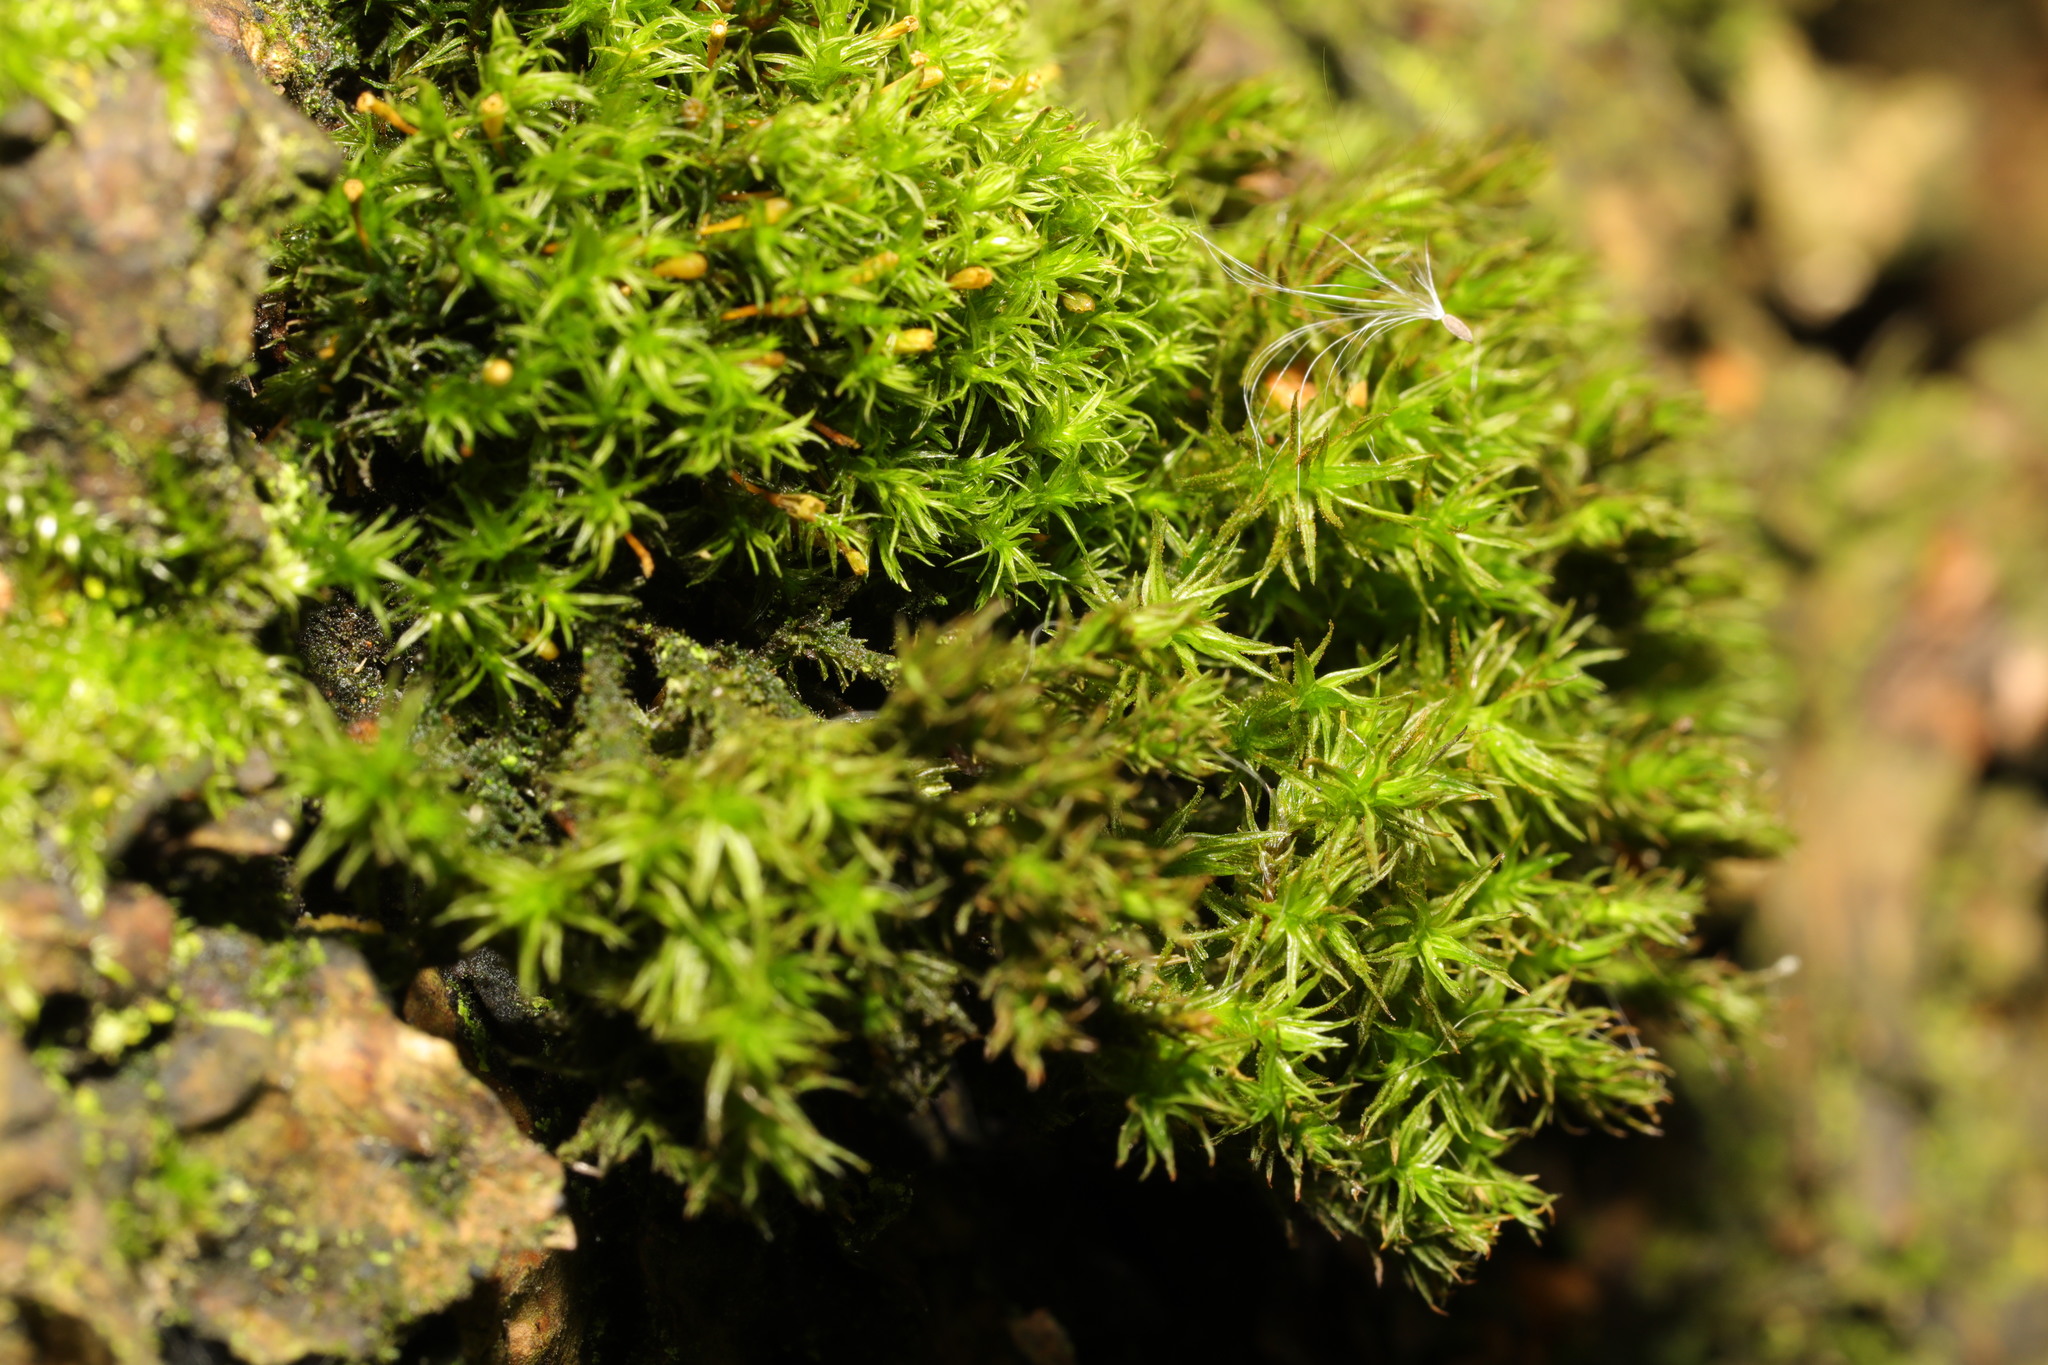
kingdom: Plantae
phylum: Bryophyta
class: Bryopsida
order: Orthotrichales
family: Orthotrichaceae
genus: Lewinskya
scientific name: Lewinskya affinis
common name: Wood bristle-moss
